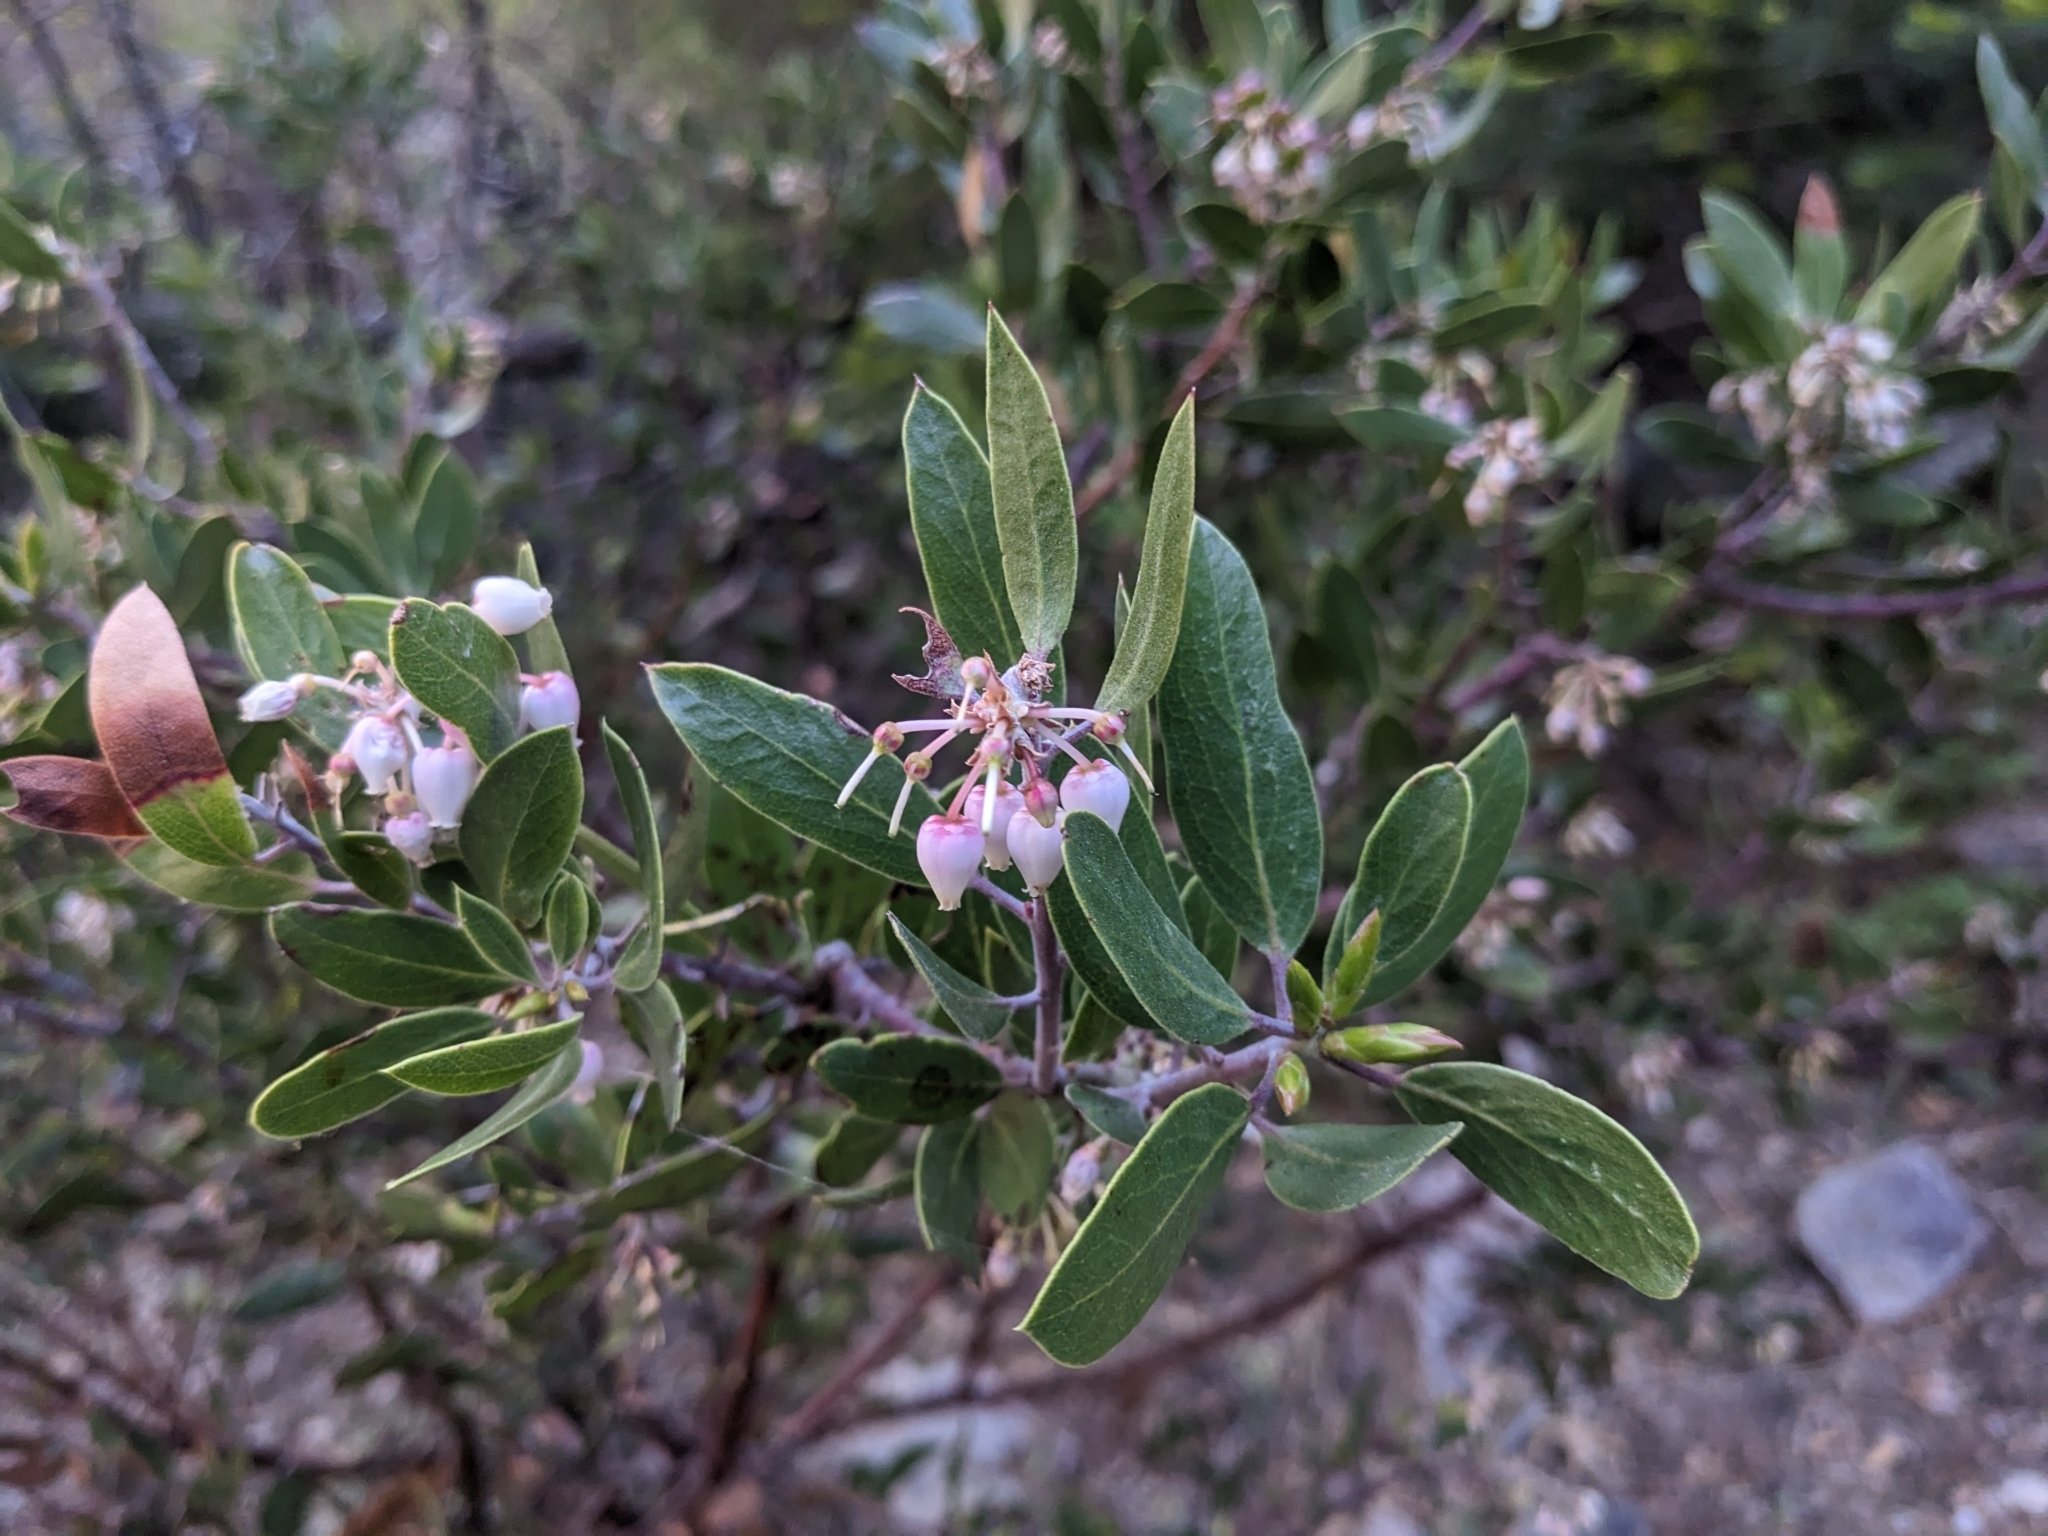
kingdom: Plantae
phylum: Tracheophyta
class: Magnoliopsida
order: Ericales
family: Ericaceae
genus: Arctostaphylos
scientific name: Arctostaphylos pungens
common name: Mexican manzanita
